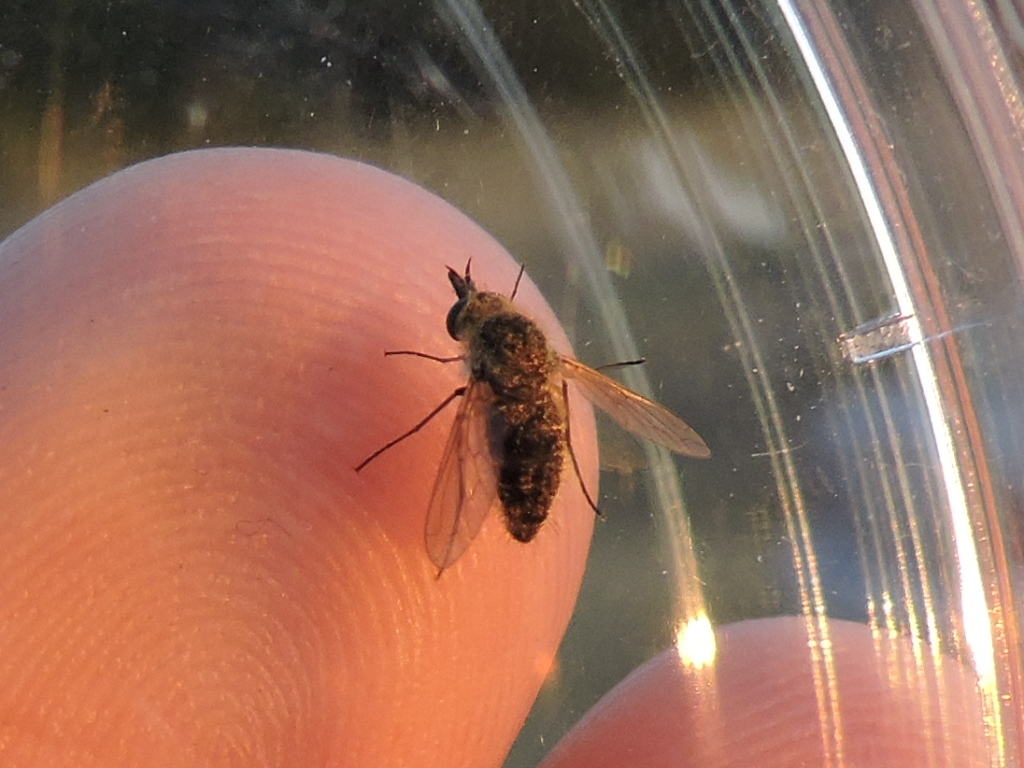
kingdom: Animalia
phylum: Arthropoda
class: Insecta
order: Diptera
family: Bombyliidae
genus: Sparnopolius
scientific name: Sparnopolius
